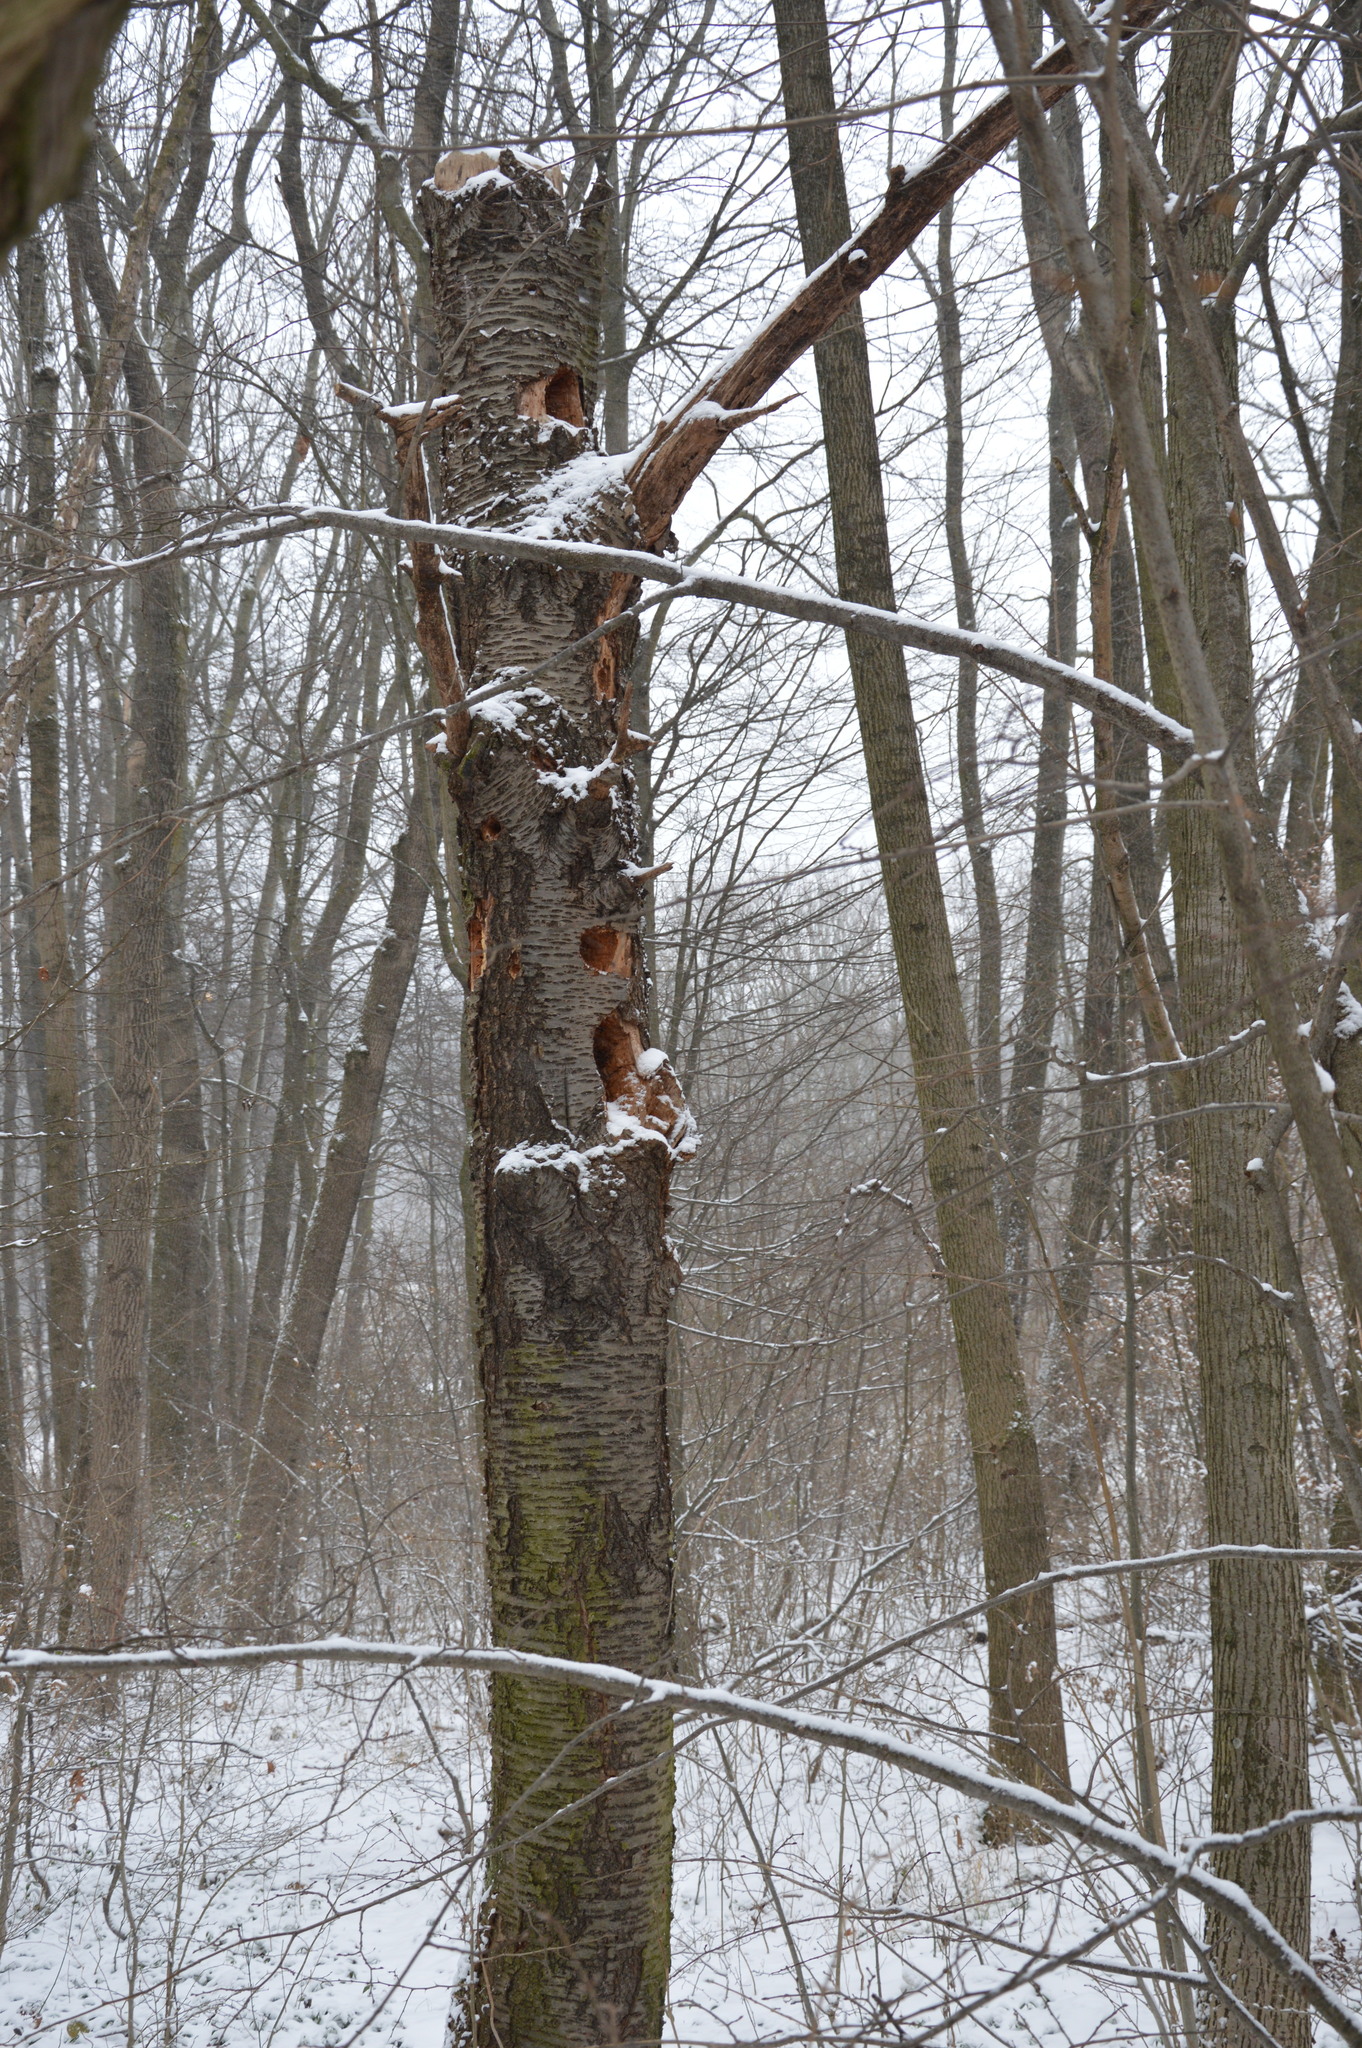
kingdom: Animalia
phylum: Chordata
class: Aves
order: Piciformes
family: Picidae
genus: Dryocopus
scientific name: Dryocopus martius
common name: Black woodpecker
